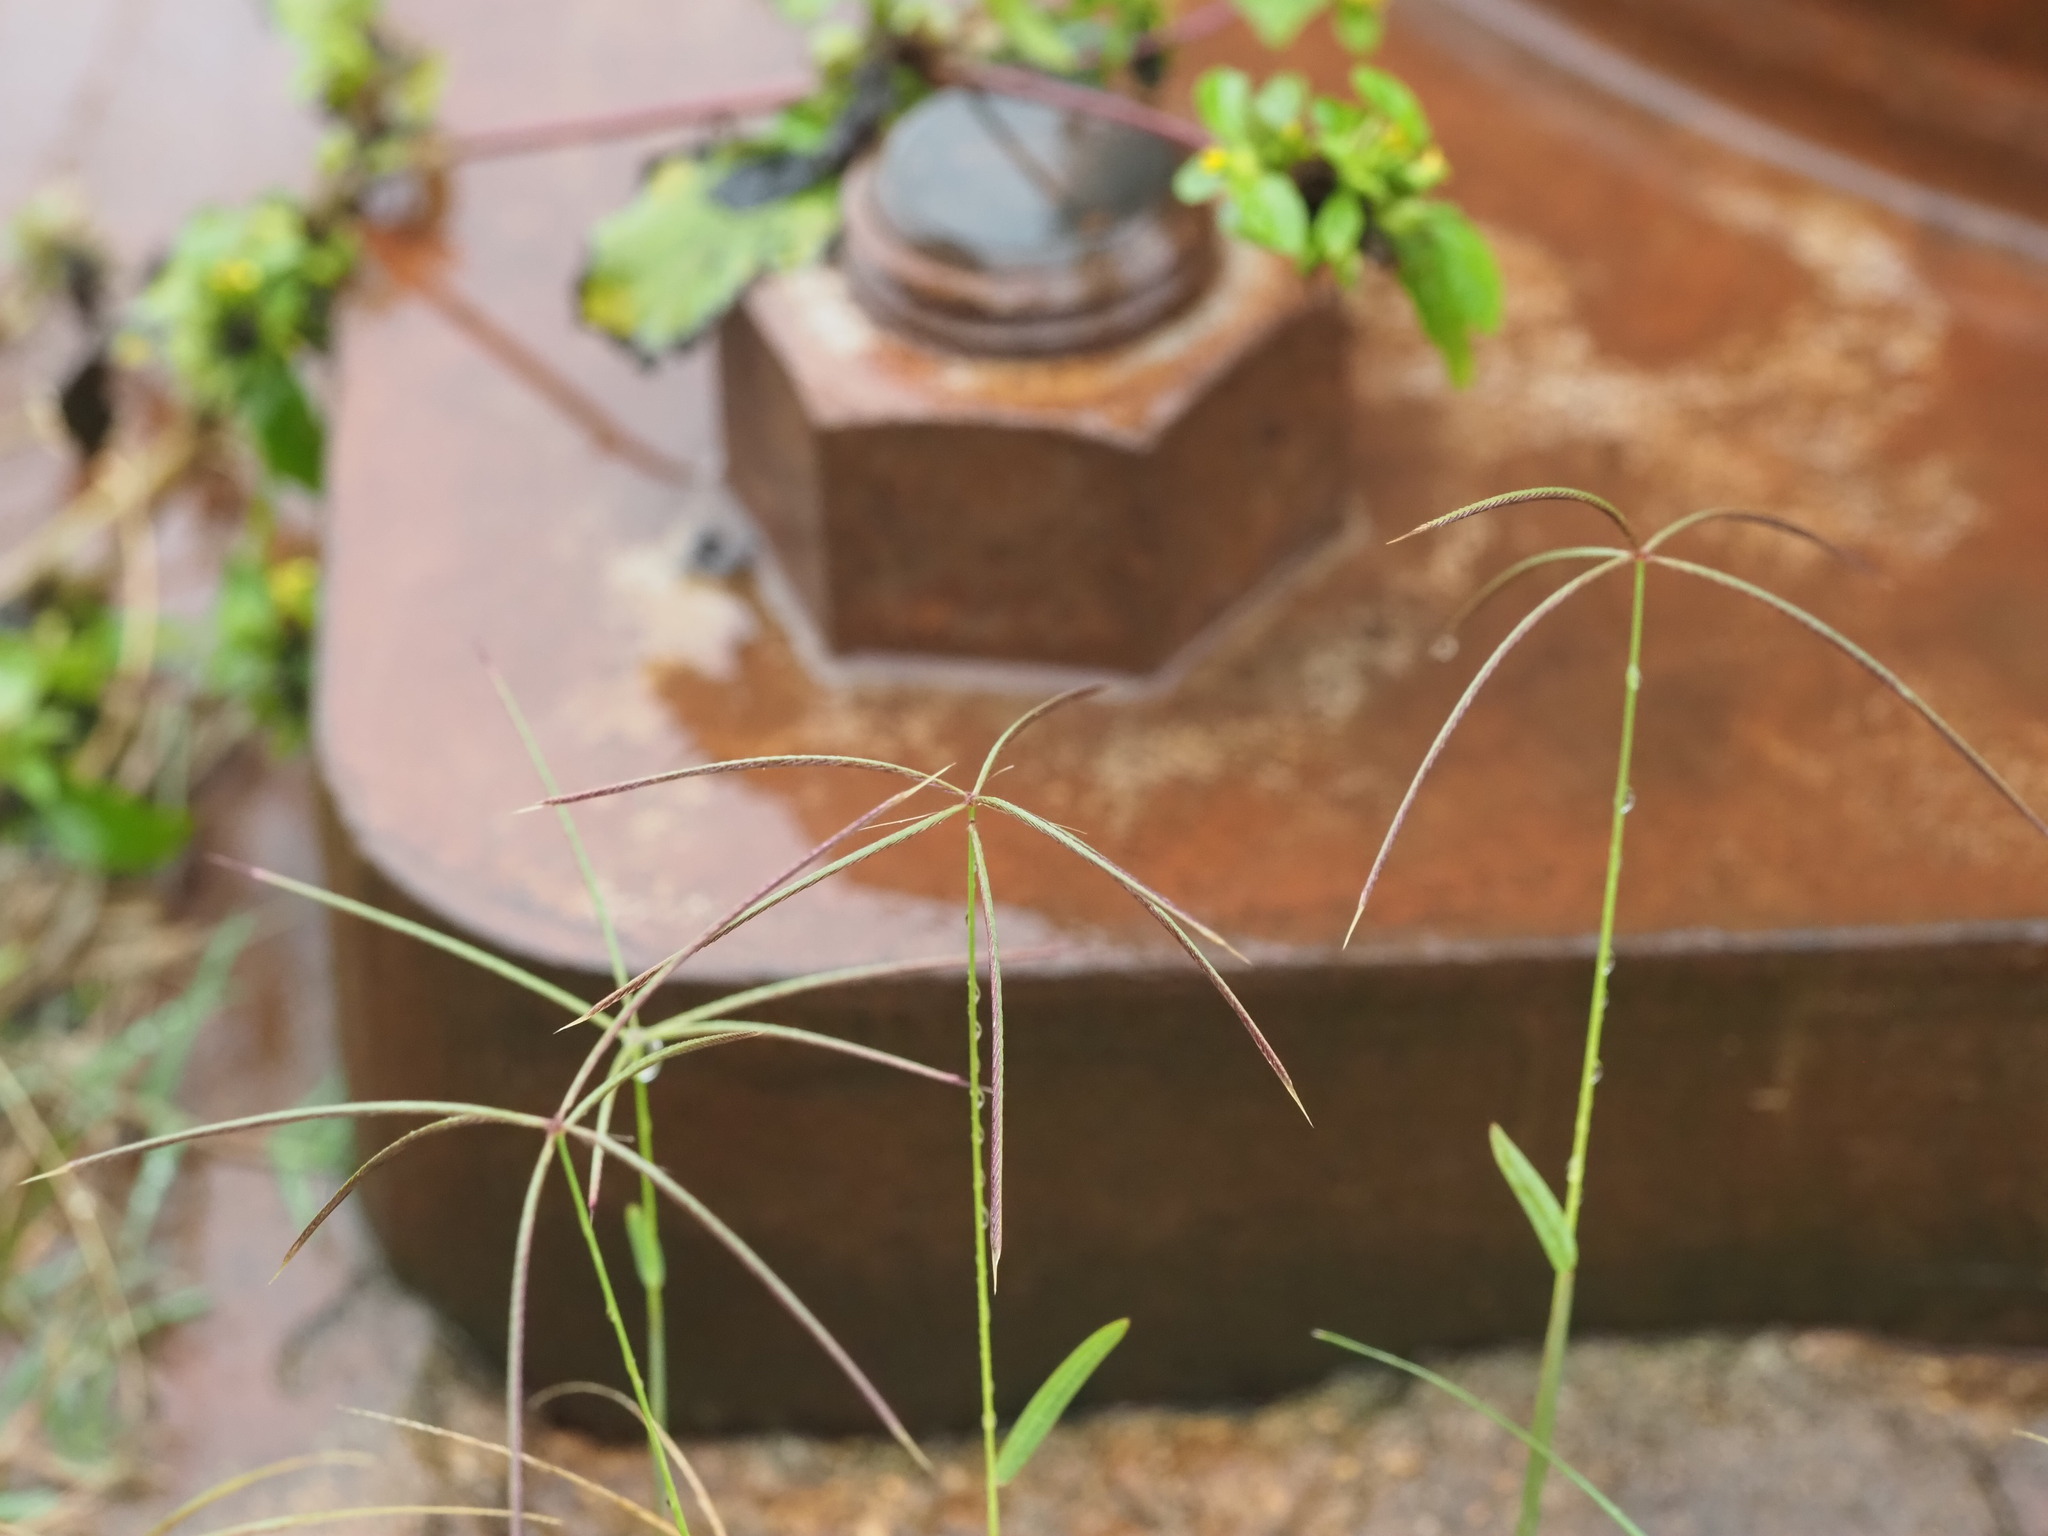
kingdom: Plantae
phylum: Tracheophyta
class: Liliopsida
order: Poales
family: Poaceae
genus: Chloris
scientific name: Chloris pycnothrix
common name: Spiderweb chloris
